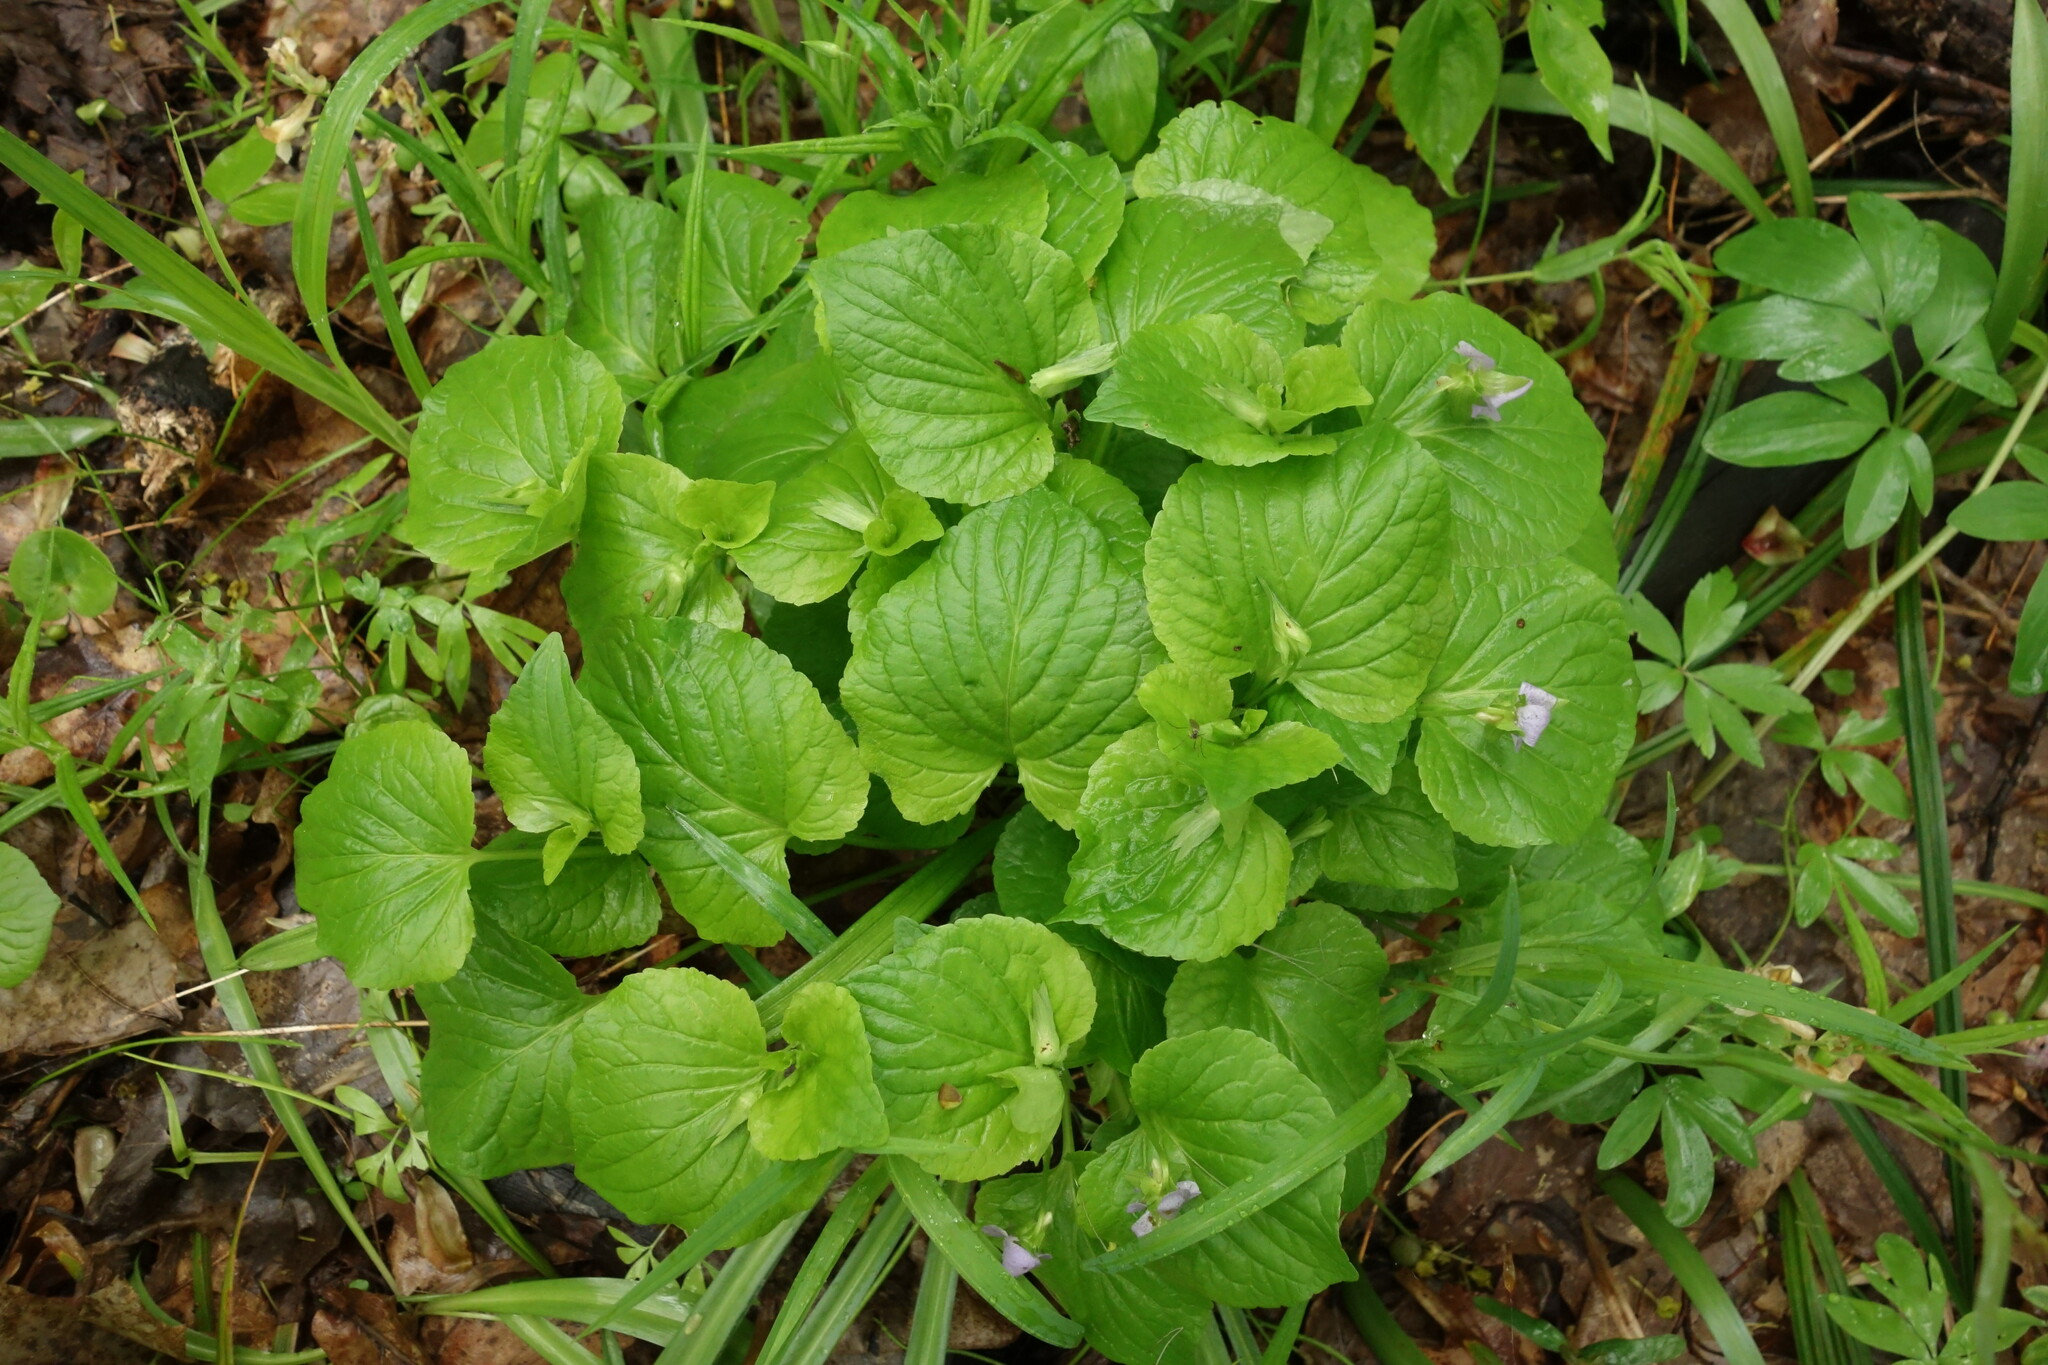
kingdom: Plantae
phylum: Tracheophyta
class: Magnoliopsida
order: Malpighiales
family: Violaceae
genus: Viola
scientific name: Viola mirabilis
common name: Wonder violet
